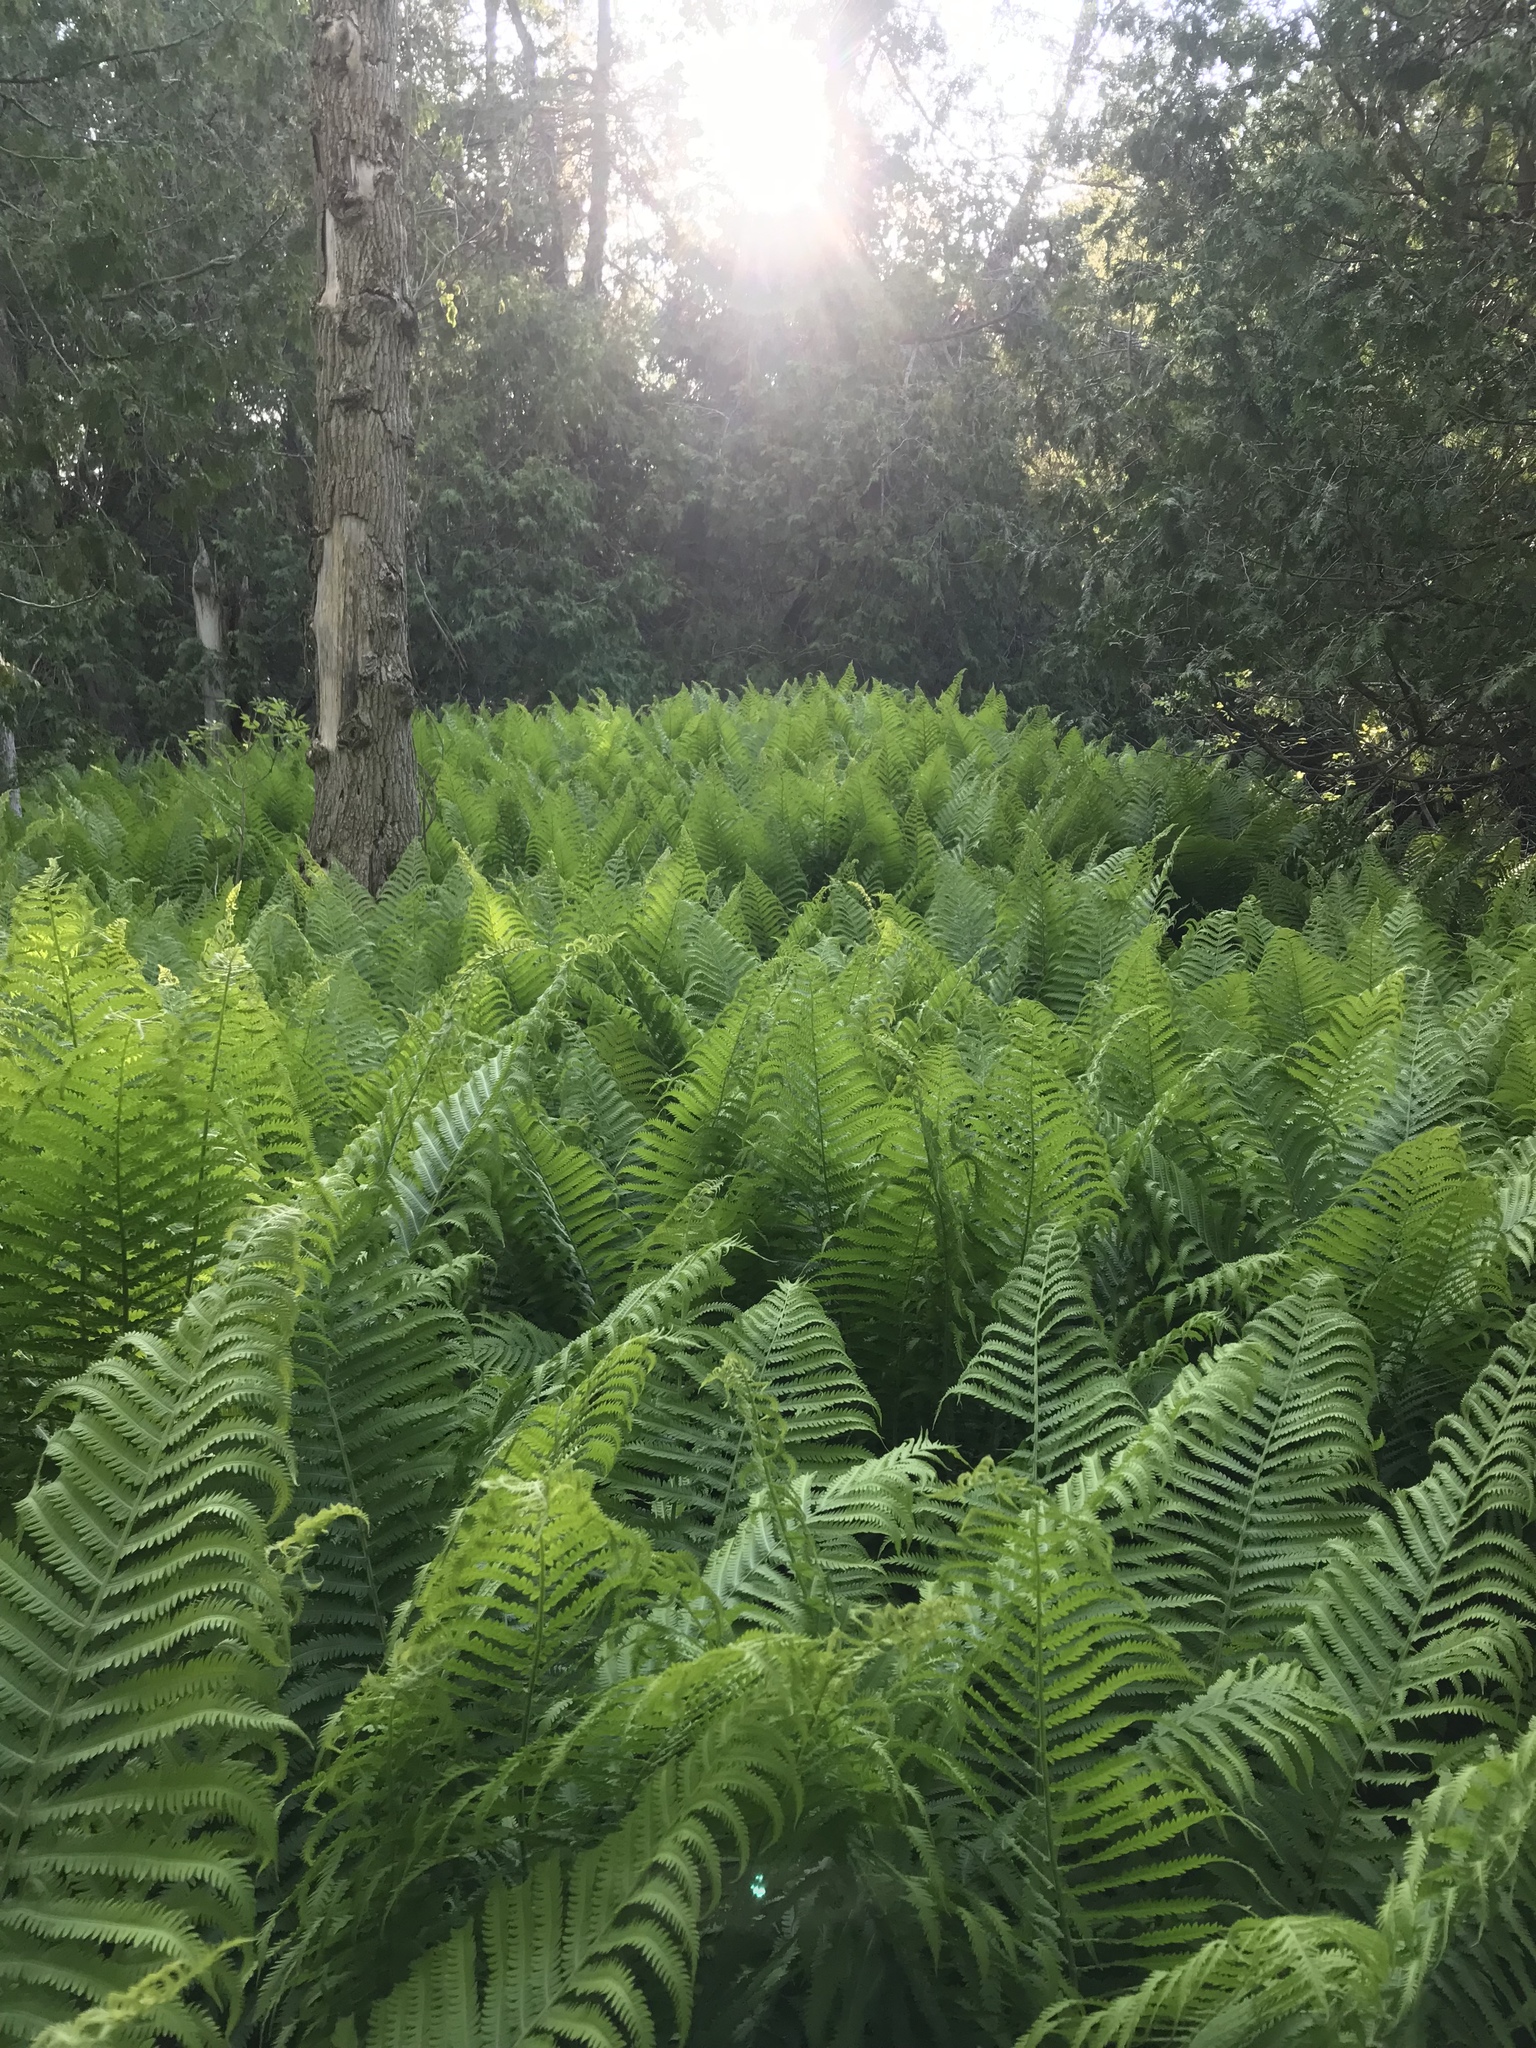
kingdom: Plantae
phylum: Tracheophyta
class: Polypodiopsida
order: Polypodiales
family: Onocleaceae
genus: Matteuccia
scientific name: Matteuccia struthiopteris
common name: Ostrich fern
